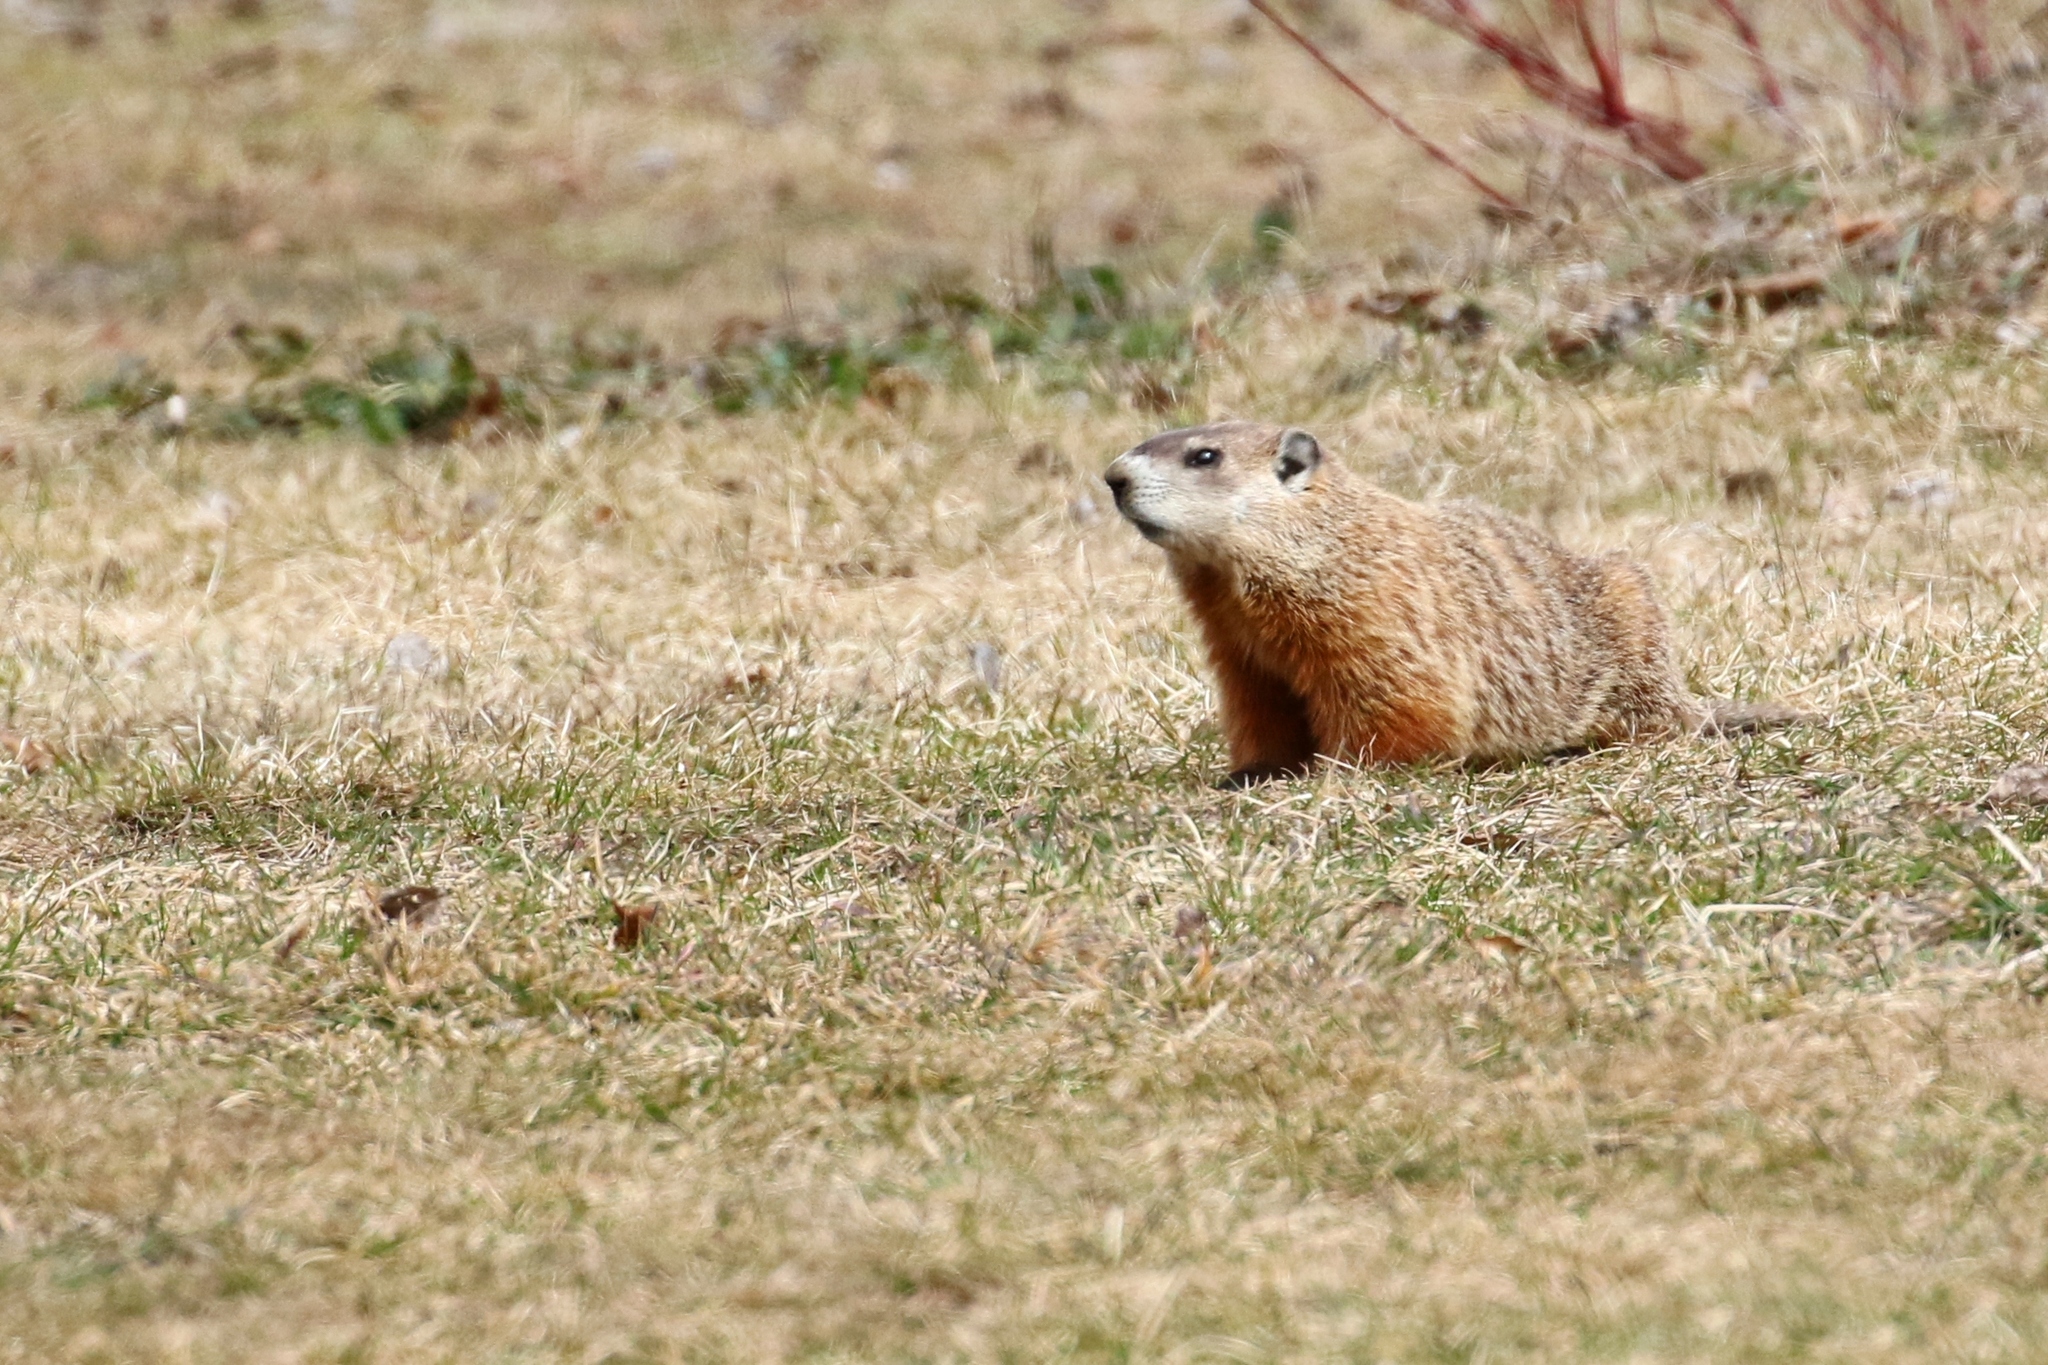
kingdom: Animalia
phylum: Chordata
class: Mammalia
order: Rodentia
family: Sciuridae
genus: Marmota
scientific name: Marmota monax
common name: Groundhog
